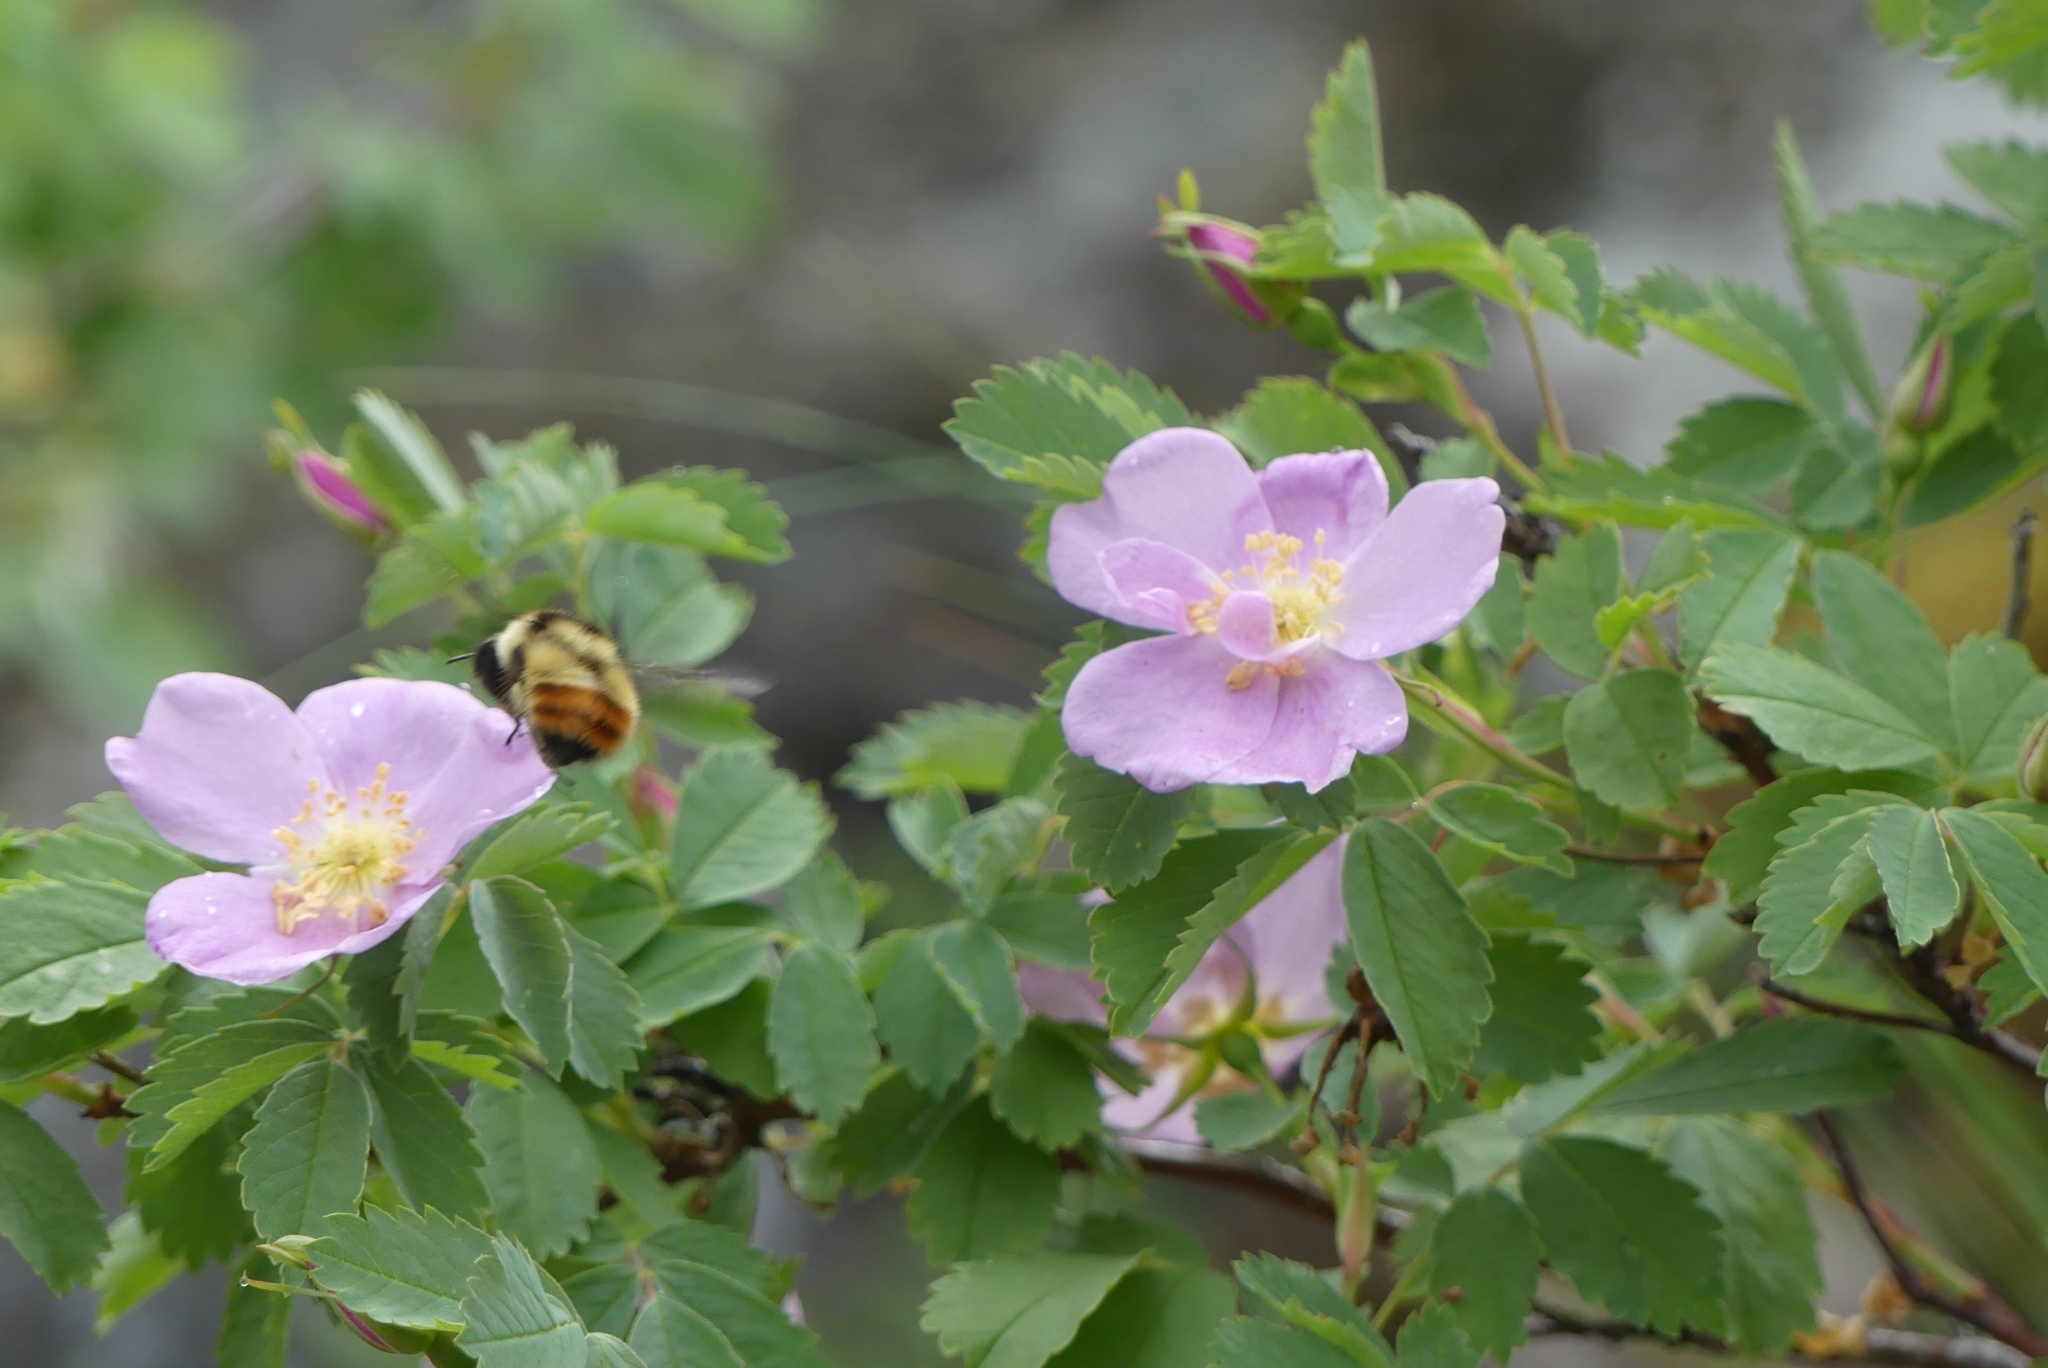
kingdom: Animalia
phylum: Arthropoda
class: Insecta
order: Hymenoptera
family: Apidae
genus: Bombus
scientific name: Bombus centralis
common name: Central bumble bee
